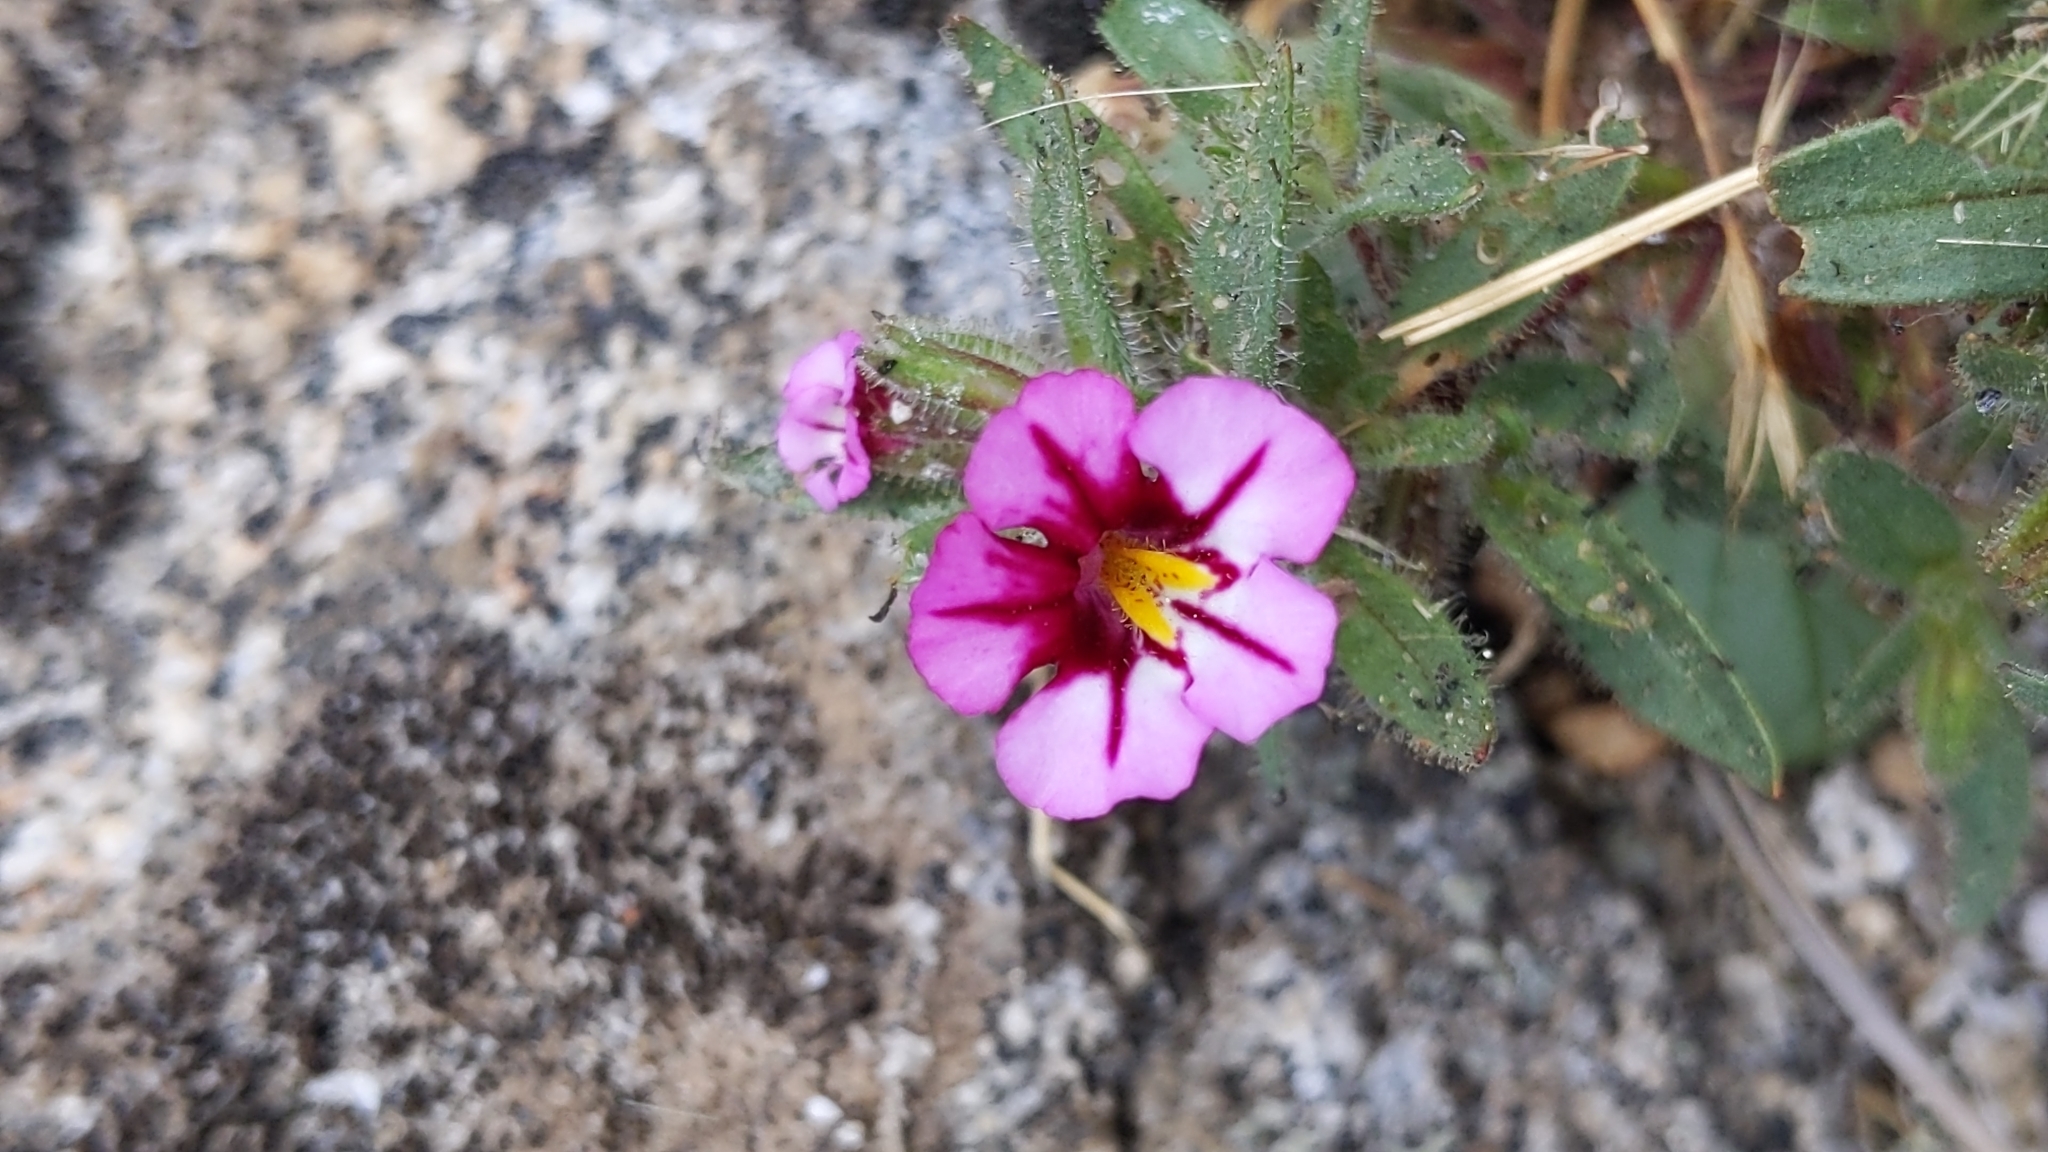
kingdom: Plantae
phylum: Tracheophyta
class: Magnoliopsida
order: Lamiales
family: Phrymaceae
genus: Diplacus
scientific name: Diplacus graniticola
